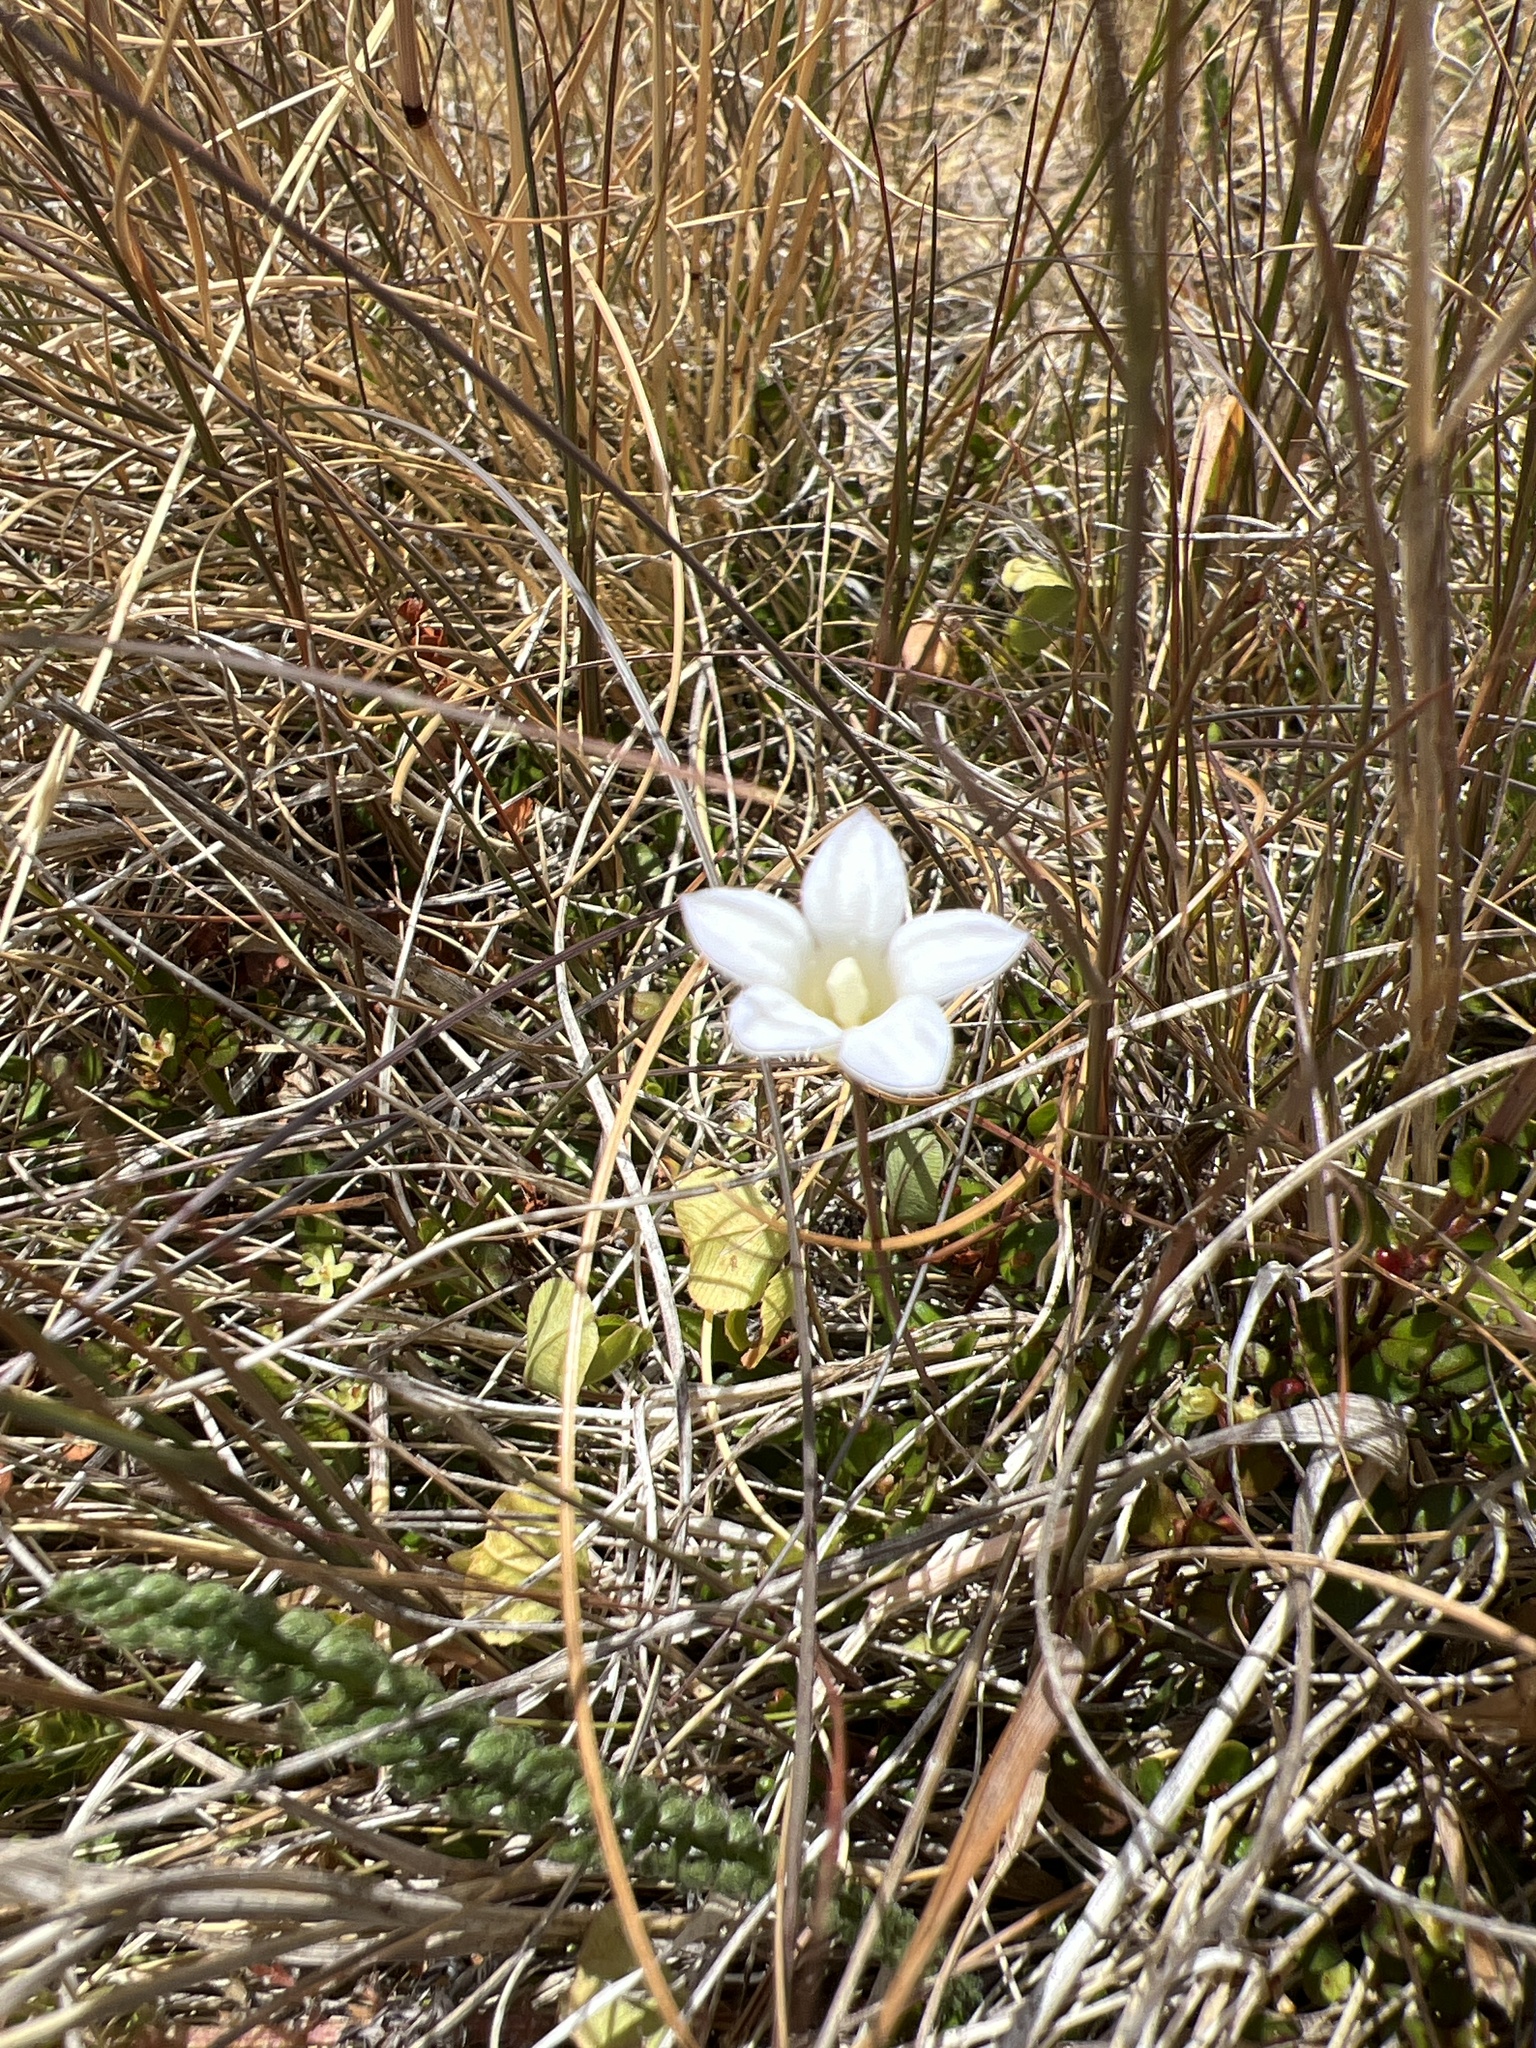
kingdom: Plantae
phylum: Tracheophyta
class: Magnoliopsida
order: Asterales
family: Campanulaceae
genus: Wahlenbergia
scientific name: Wahlenbergia albomarginata
